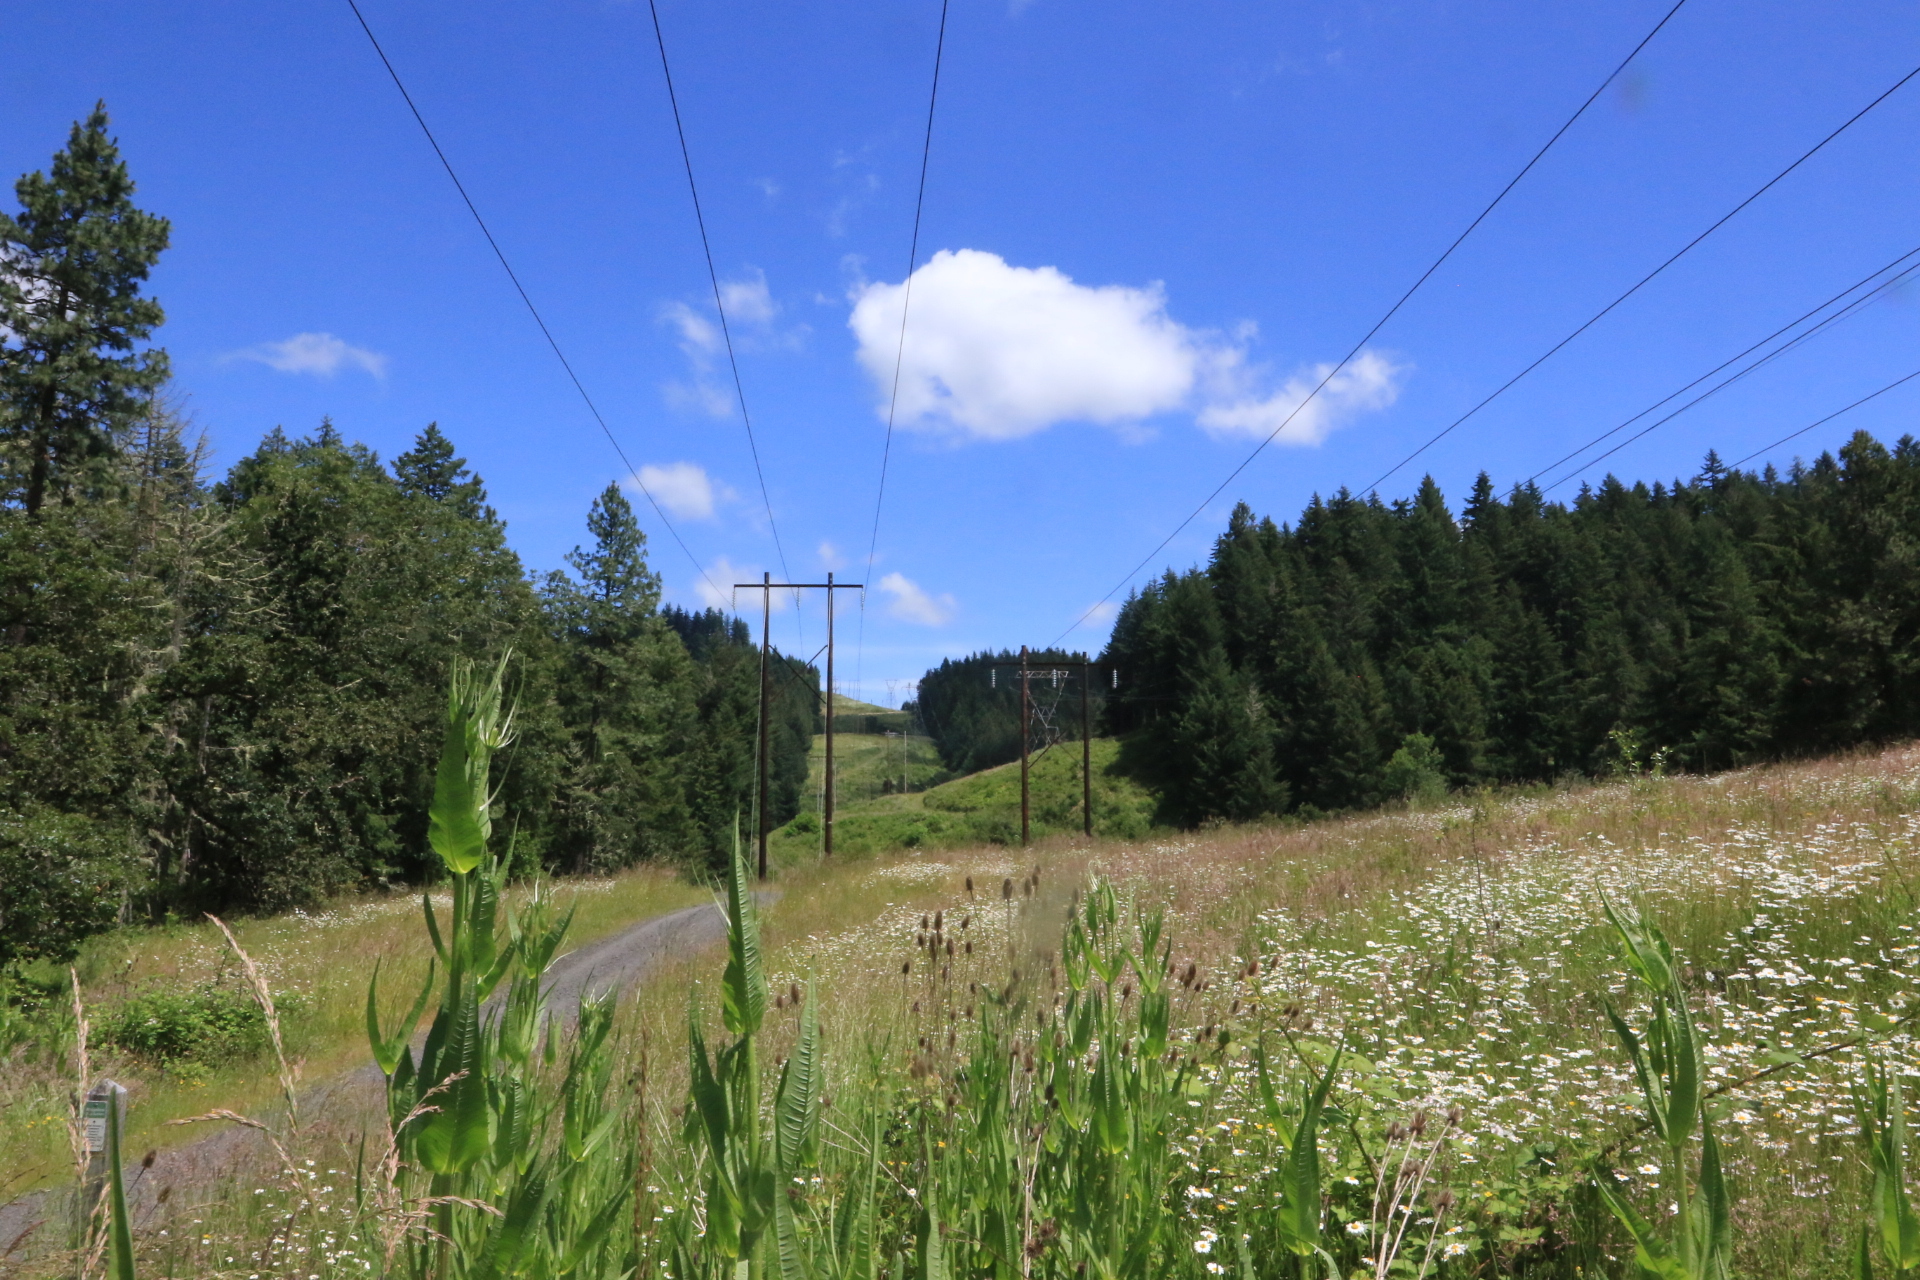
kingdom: Plantae
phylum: Tracheophyta
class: Magnoliopsida
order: Dipsacales
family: Caprifoliaceae
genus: Dipsacus
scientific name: Dipsacus fullonum
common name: Teasel
